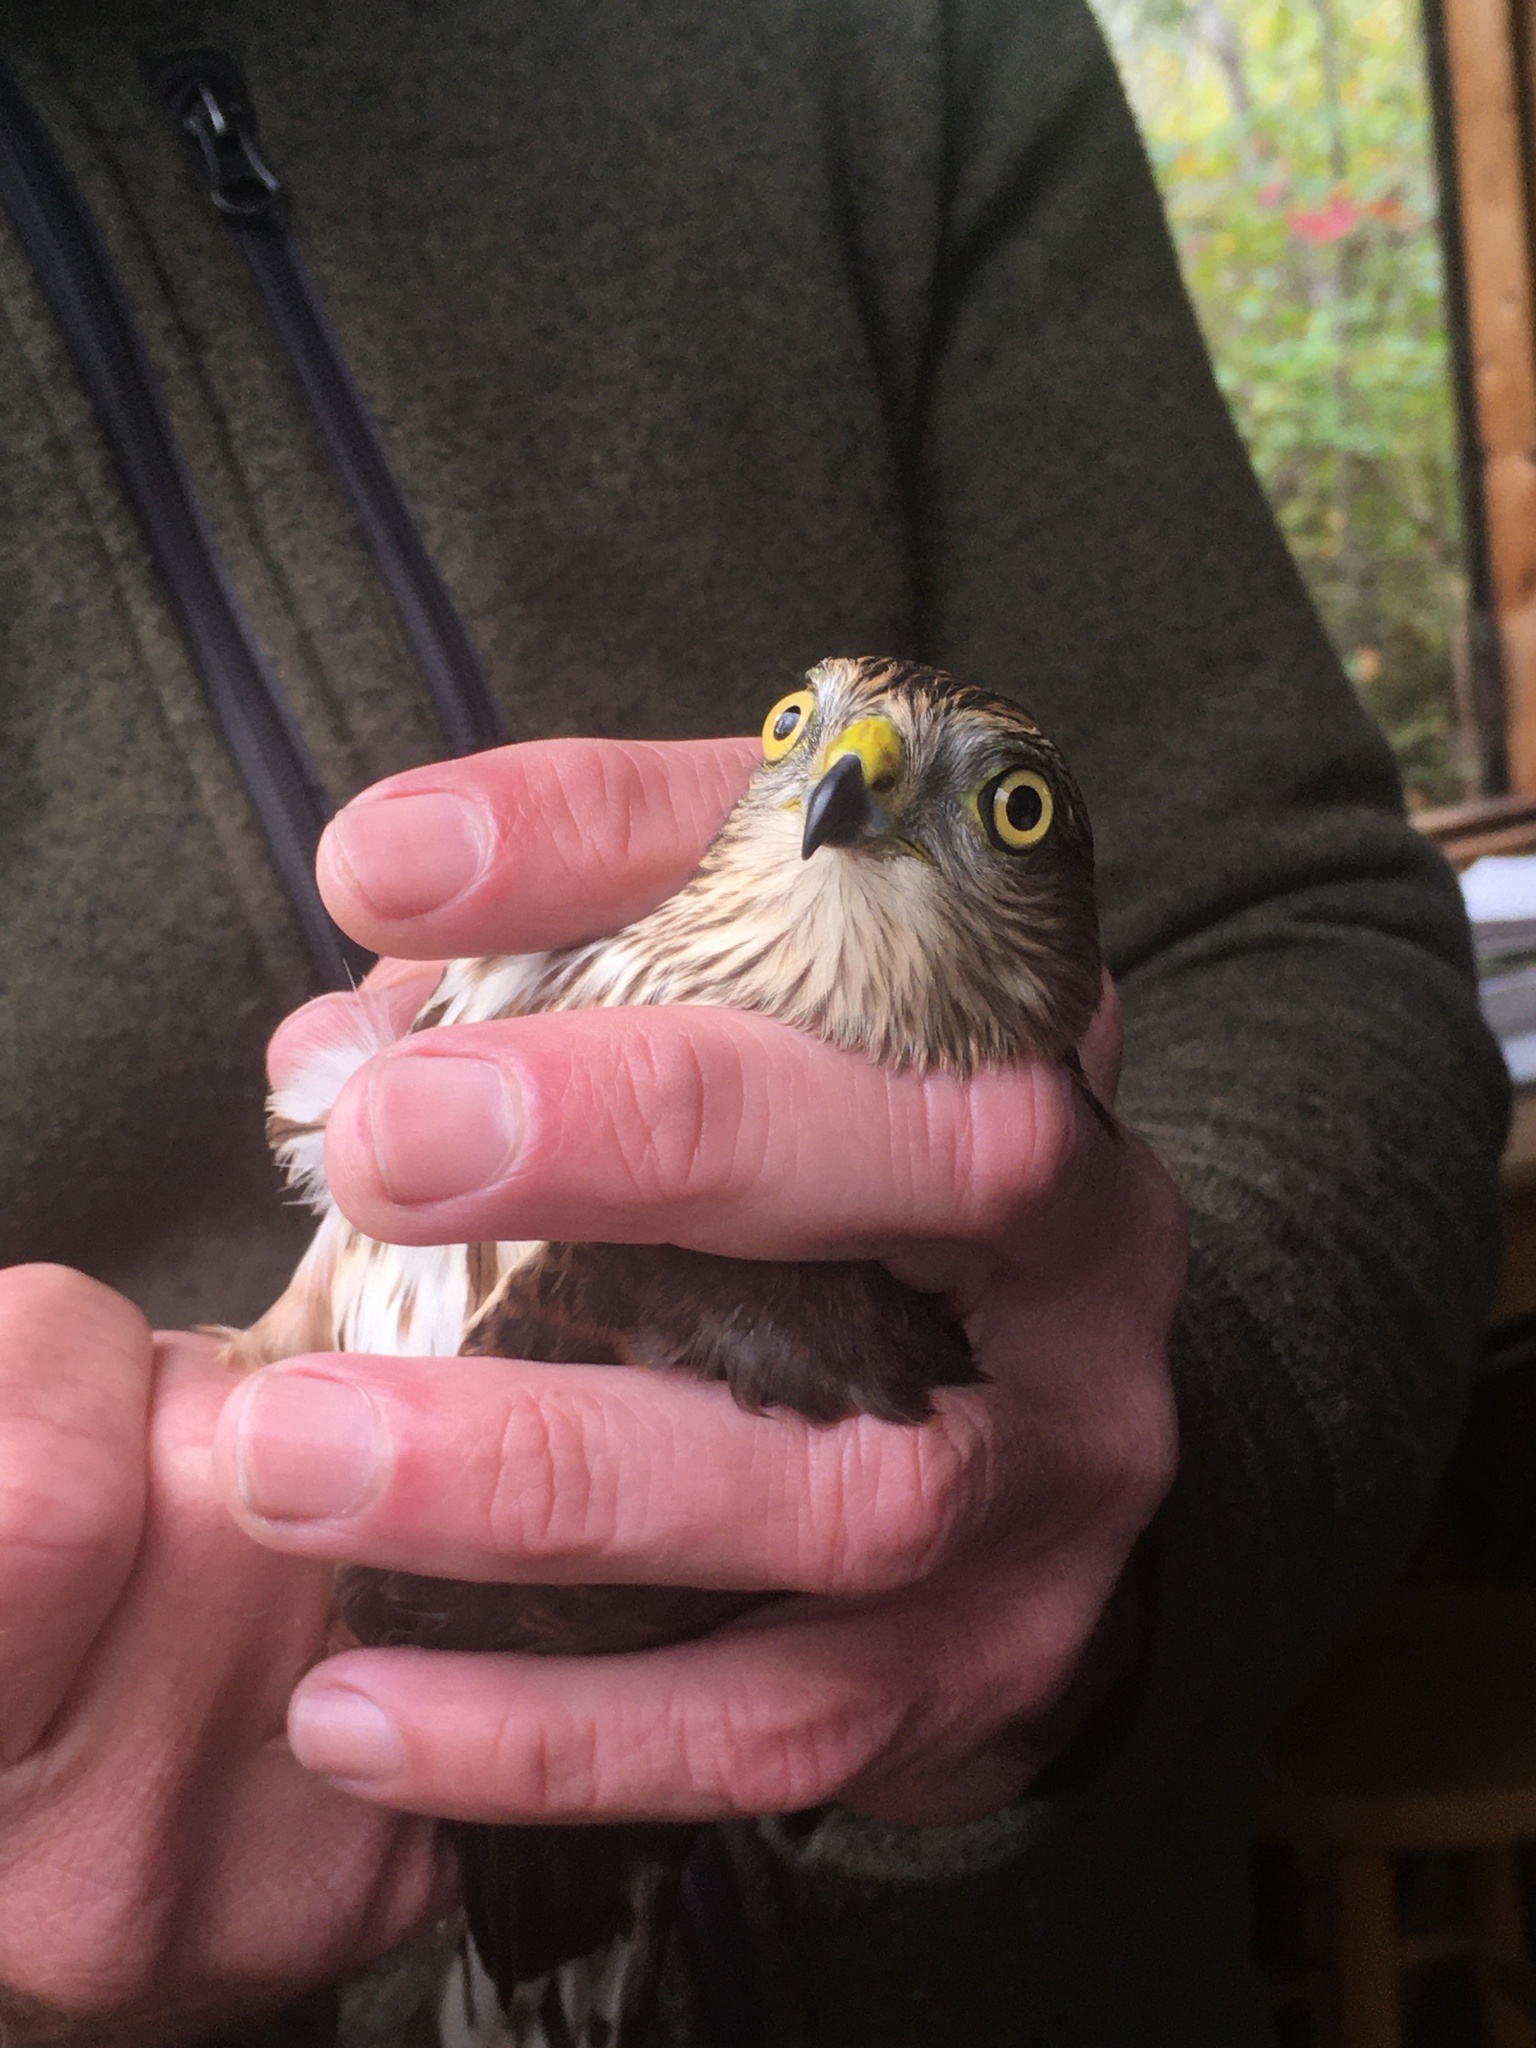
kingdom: Animalia
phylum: Chordata
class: Aves
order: Accipitriformes
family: Accipitridae
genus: Accipiter
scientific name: Accipiter striatus
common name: Sharp-shinned hawk
